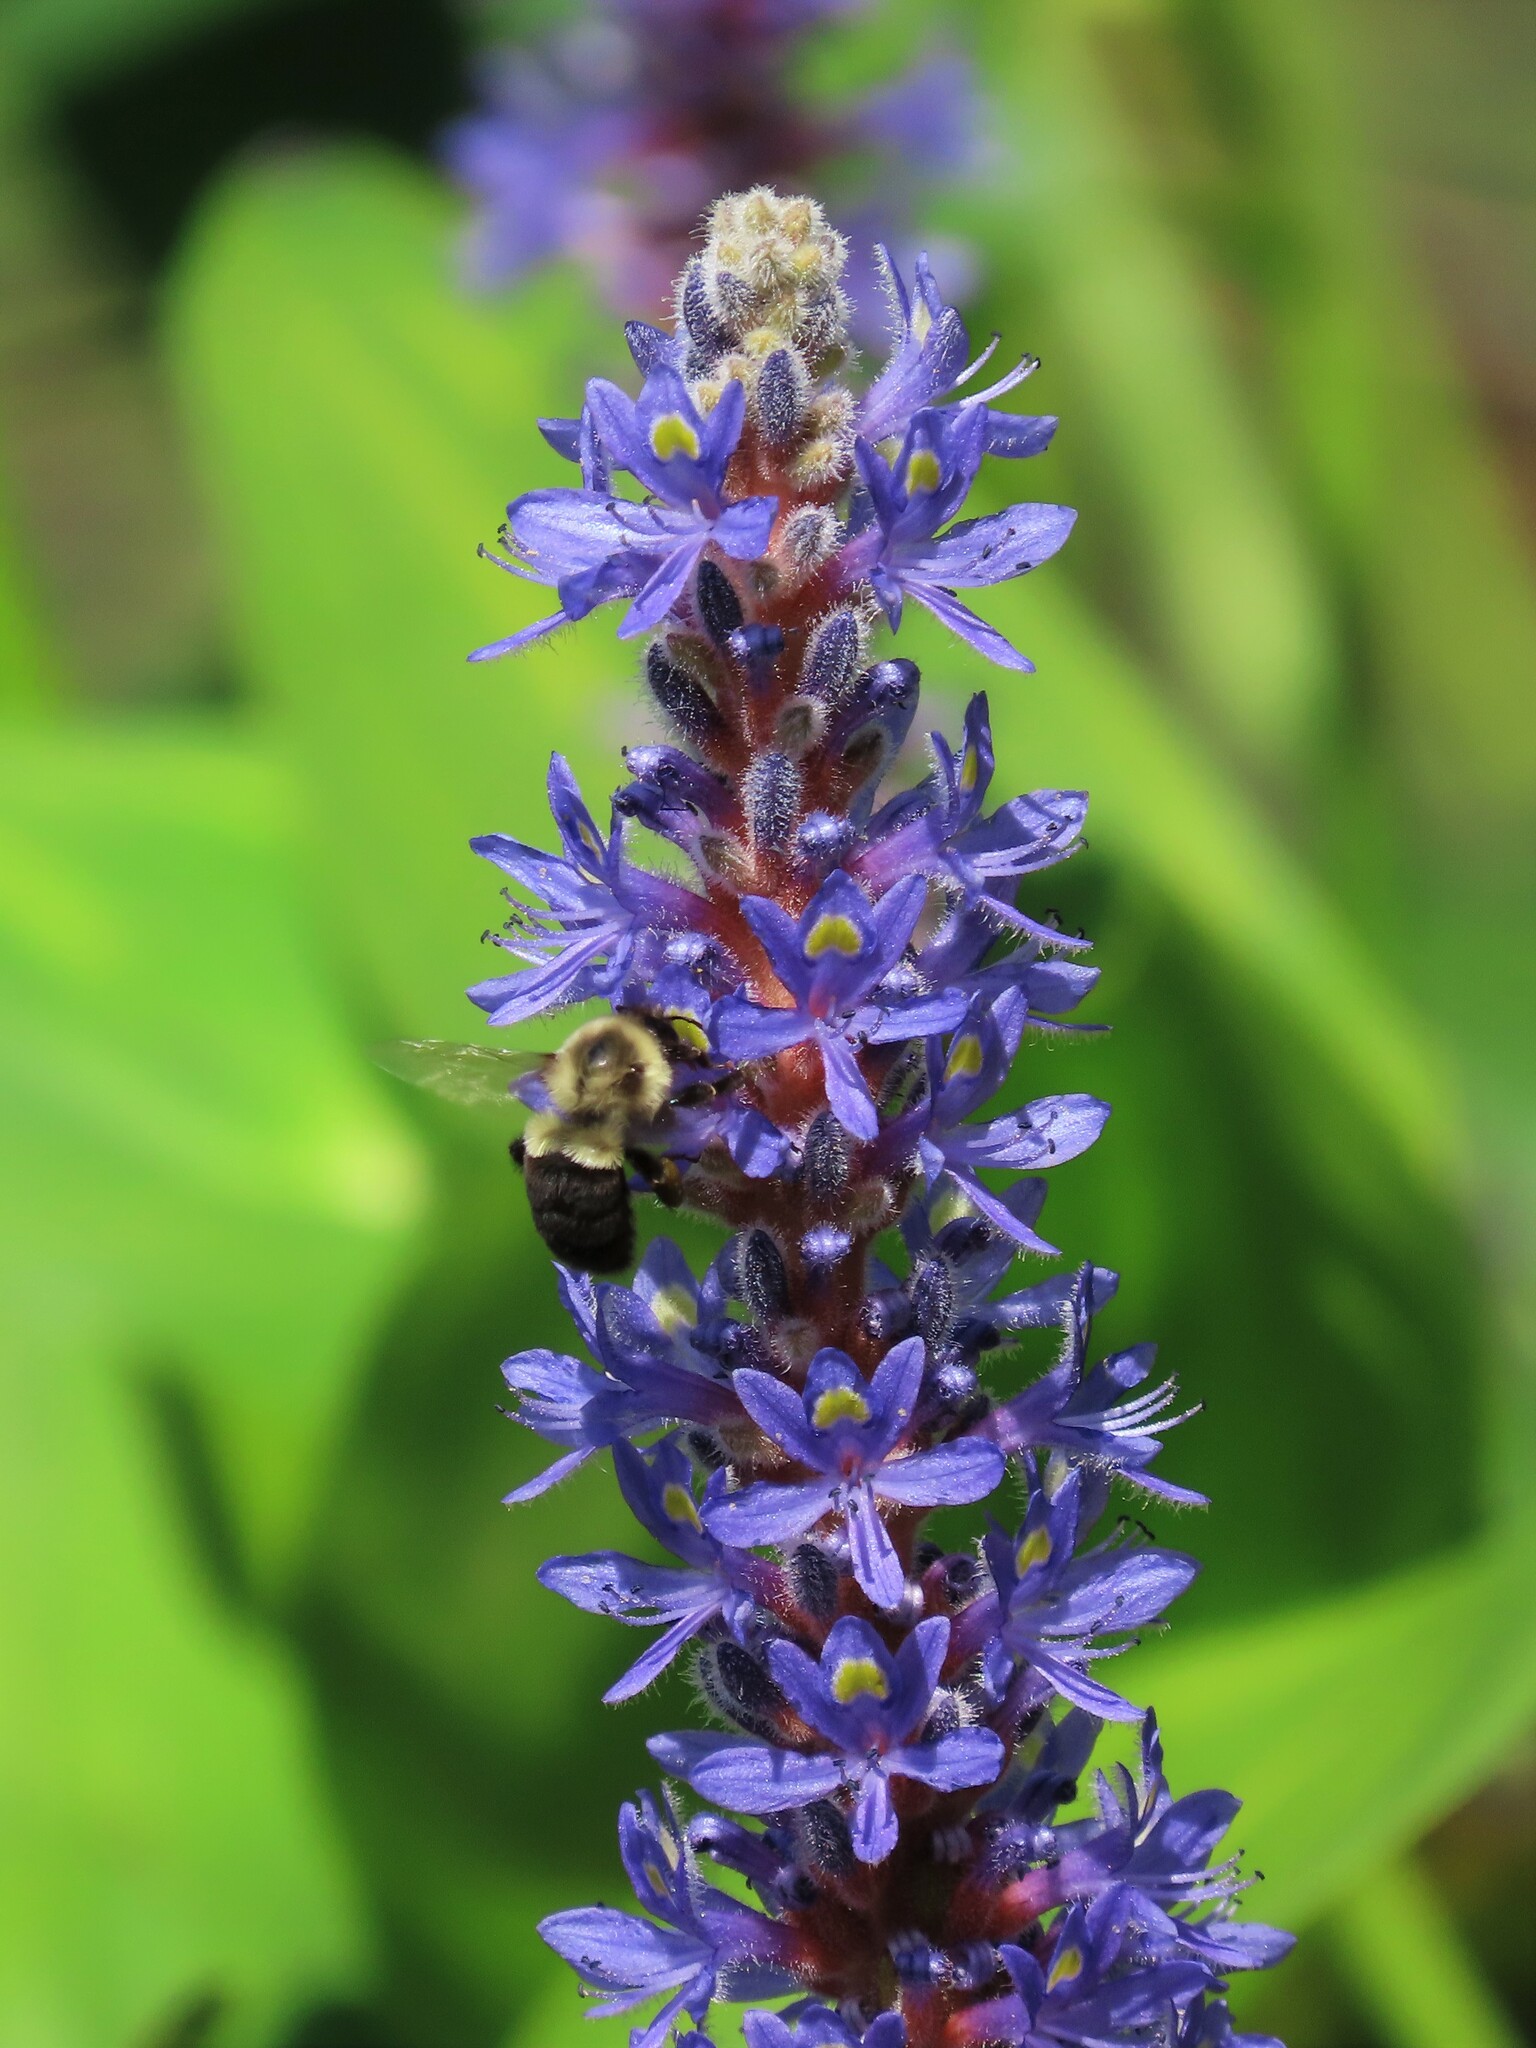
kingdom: Plantae
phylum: Tracheophyta
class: Liliopsida
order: Commelinales
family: Pontederiaceae
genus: Pontederia
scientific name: Pontederia cordata
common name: Pickerelweed
